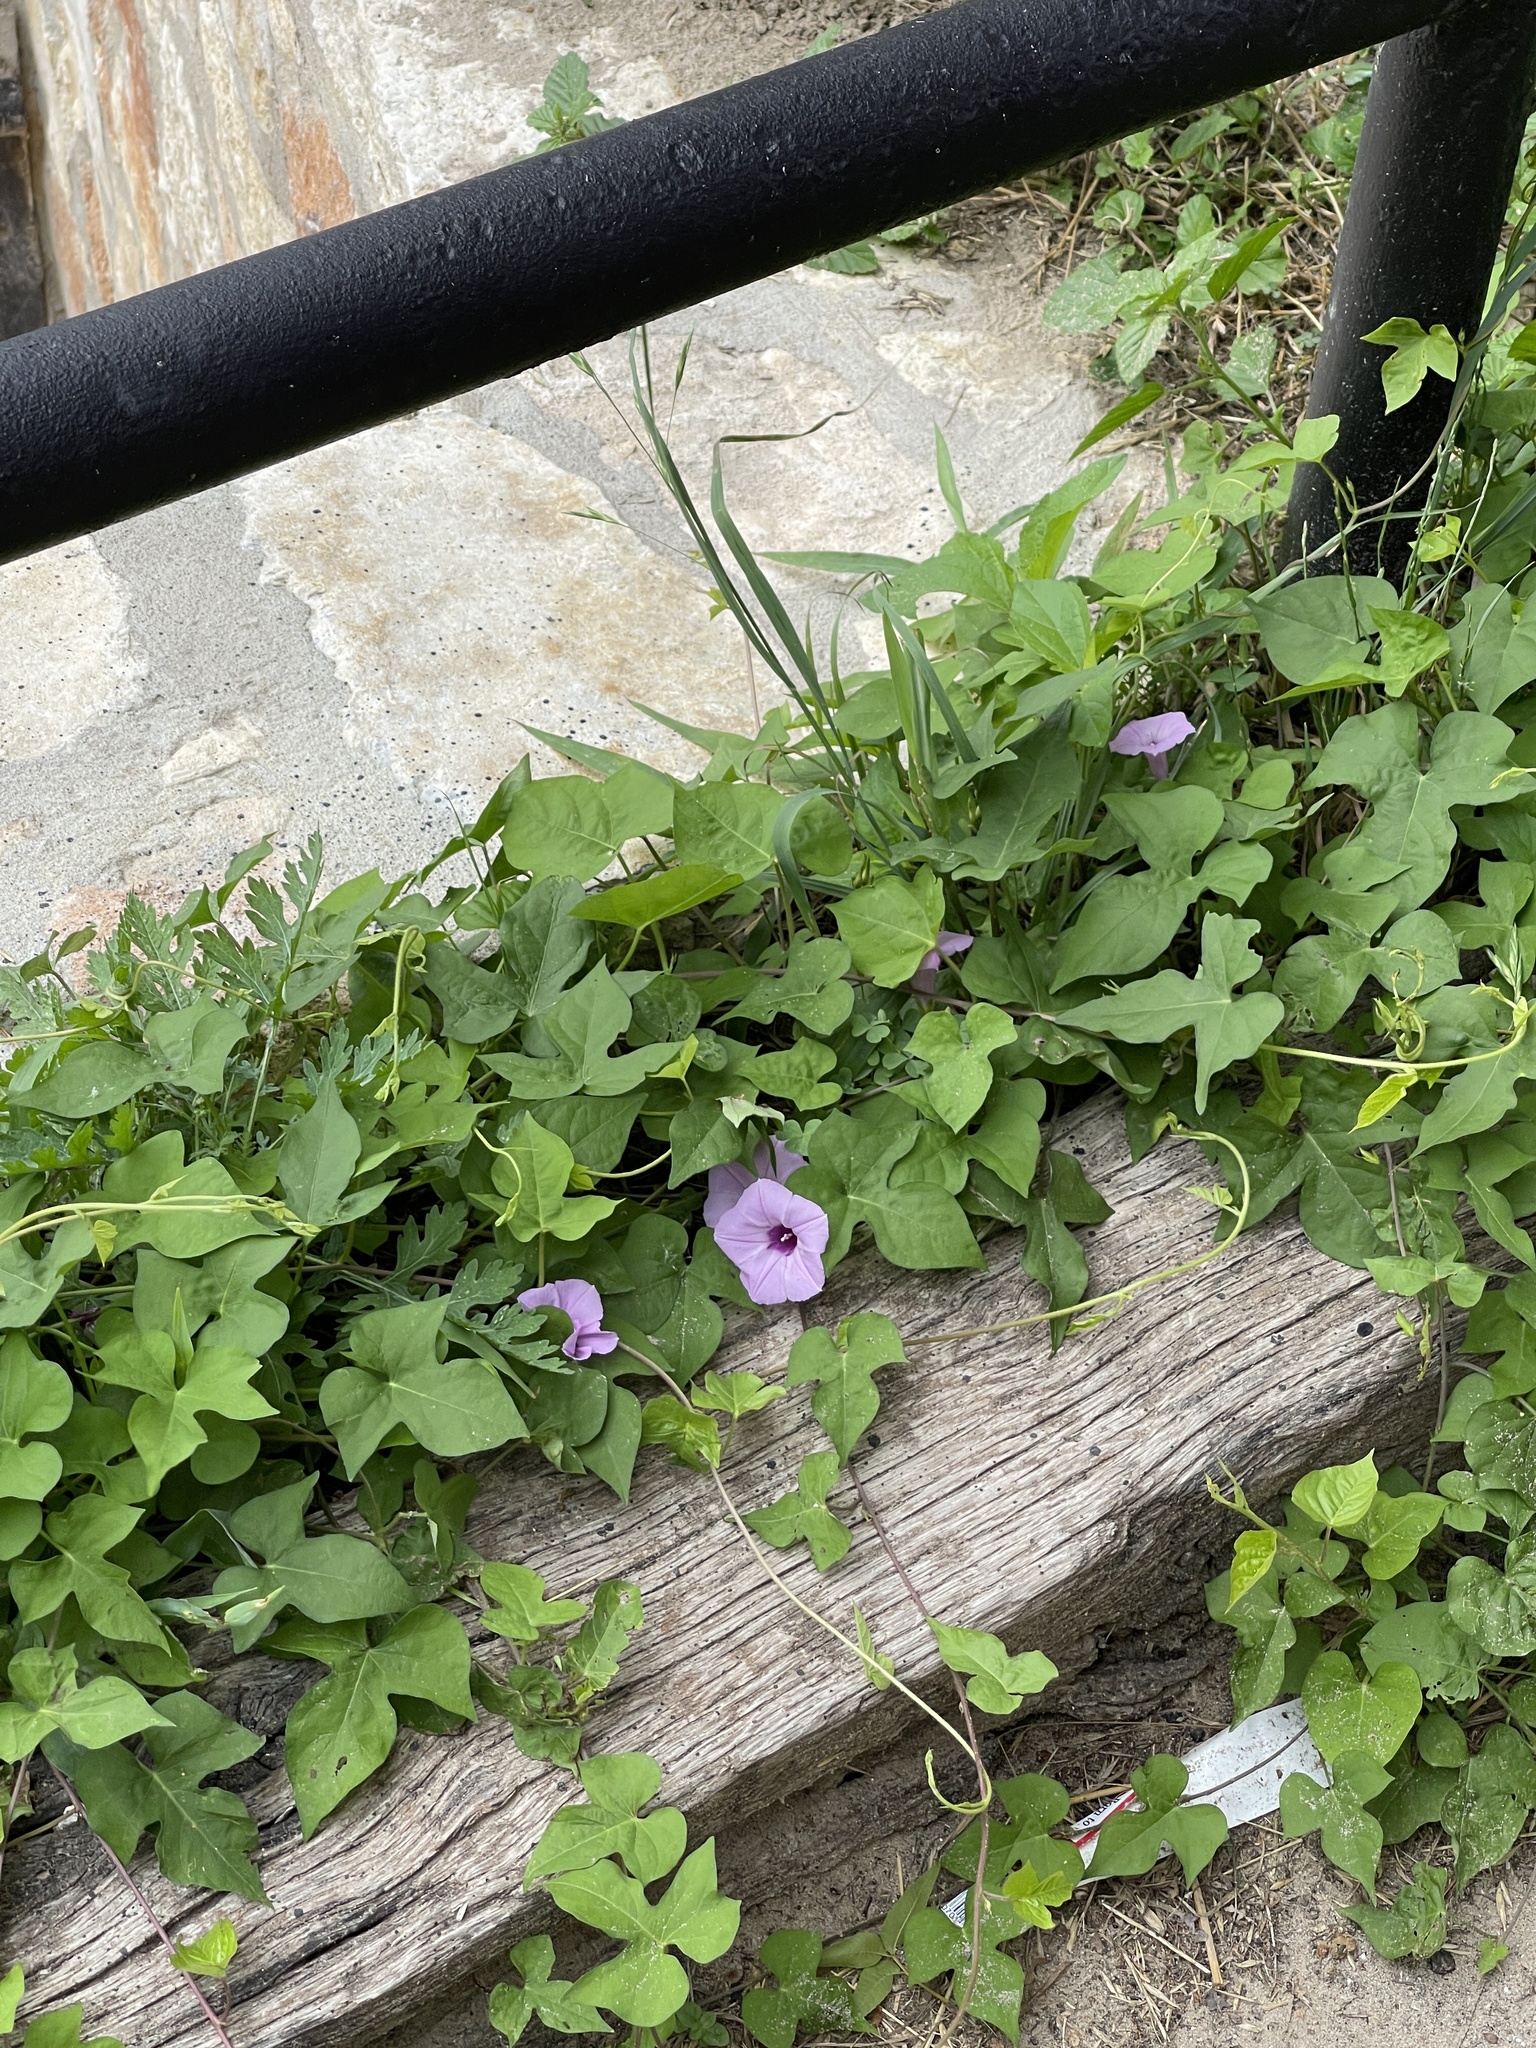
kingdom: Plantae
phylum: Tracheophyta
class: Magnoliopsida
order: Solanales
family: Convolvulaceae
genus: Ipomoea
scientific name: Ipomoea cordatotriloba
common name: Cotton morning glory
